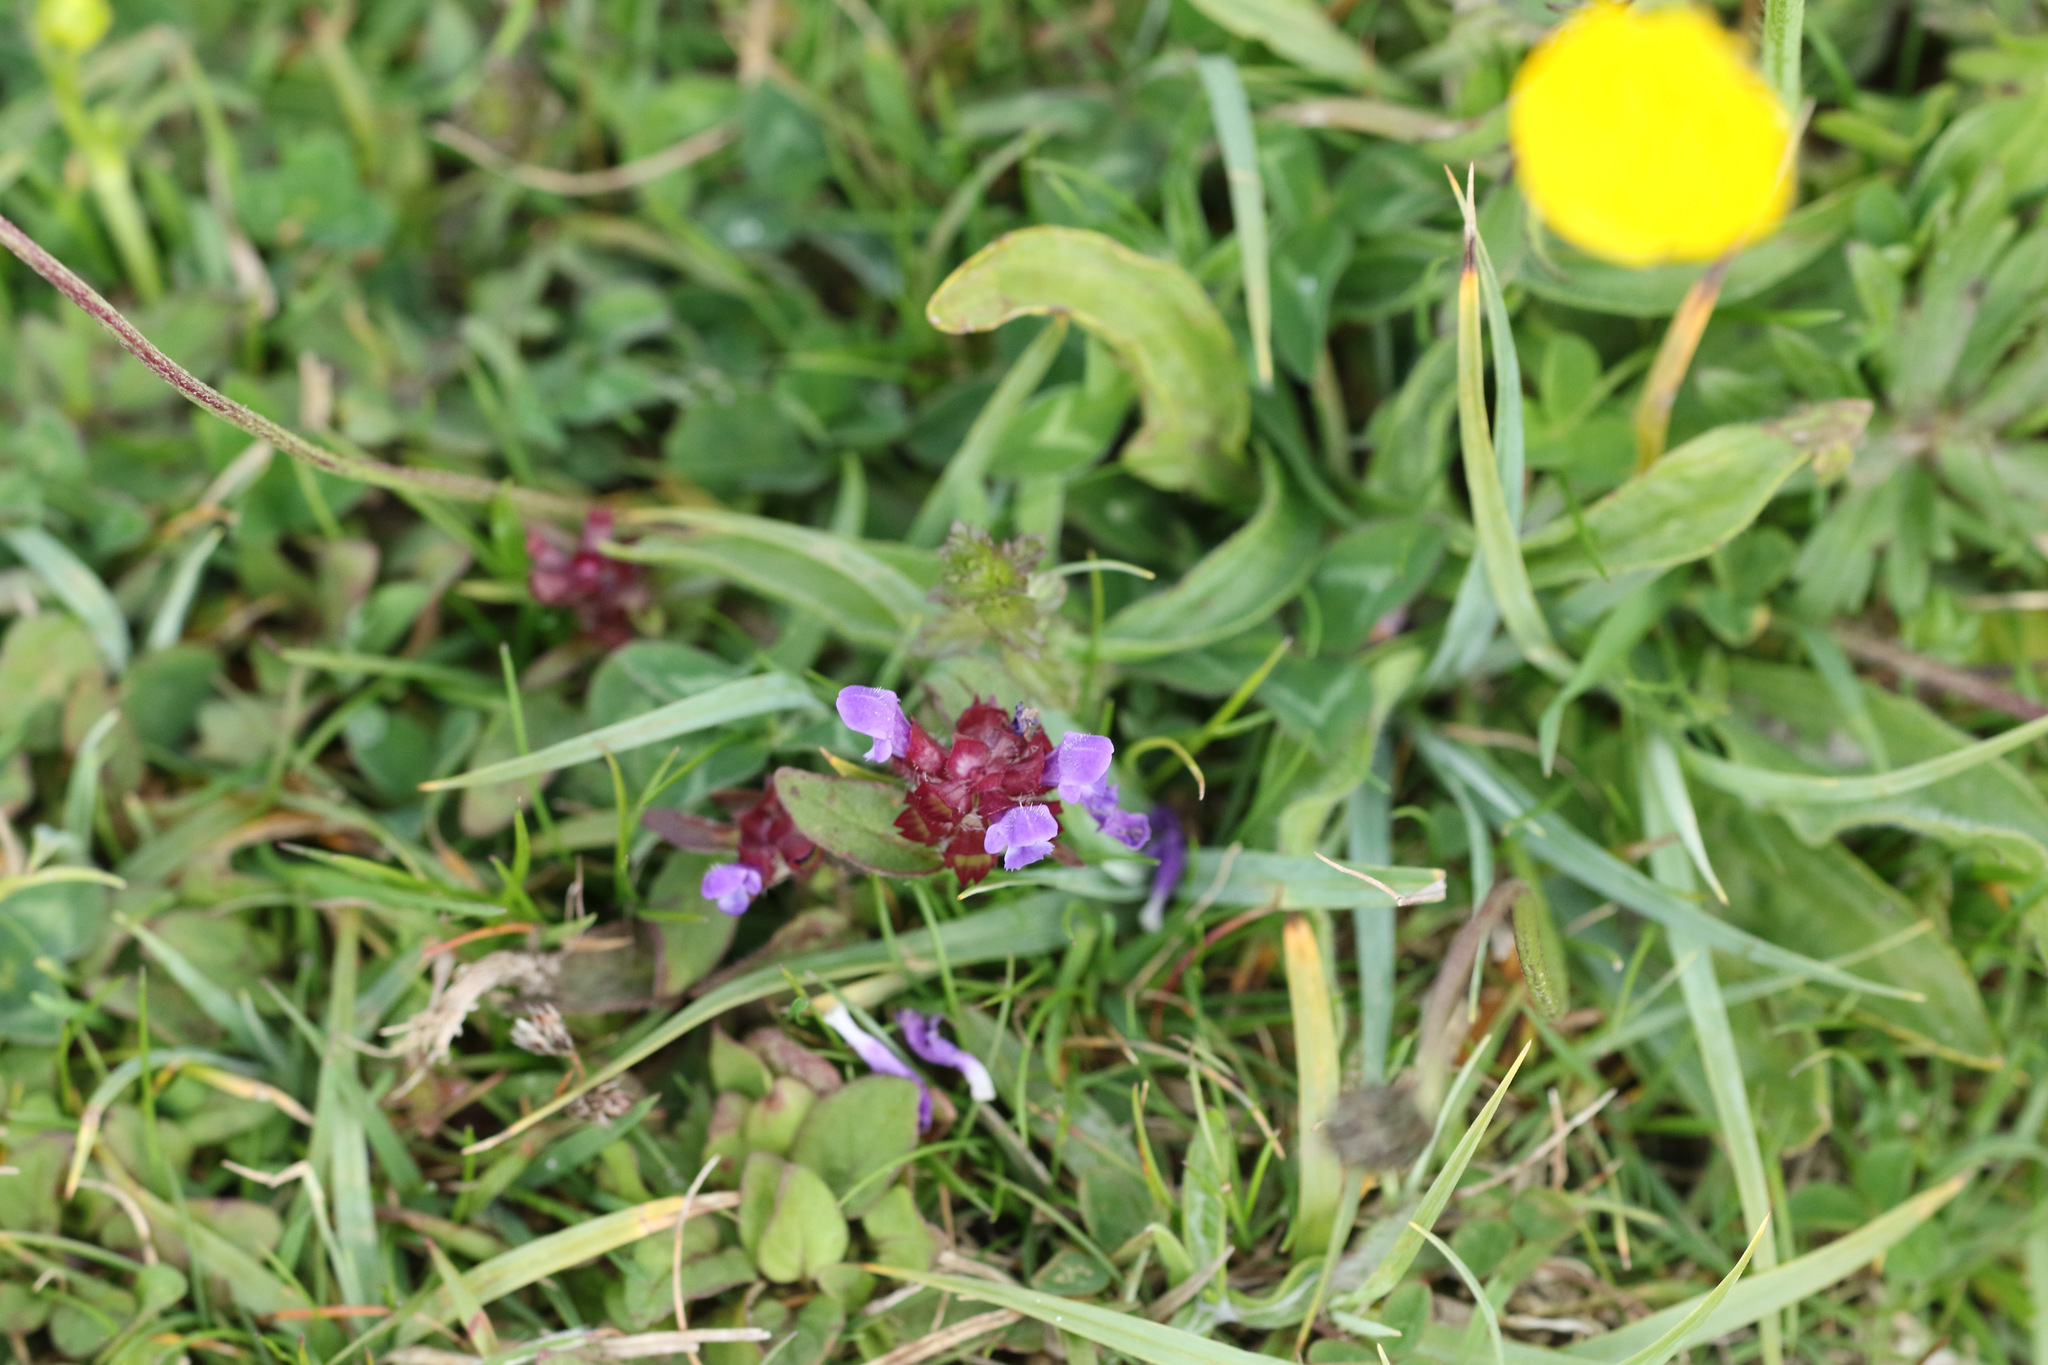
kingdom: Plantae
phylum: Tracheophyta
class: Magnoliopsida
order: Lamiales
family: Lamiaceae
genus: Prunella
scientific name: Prunella vulgaris
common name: Heal-all
